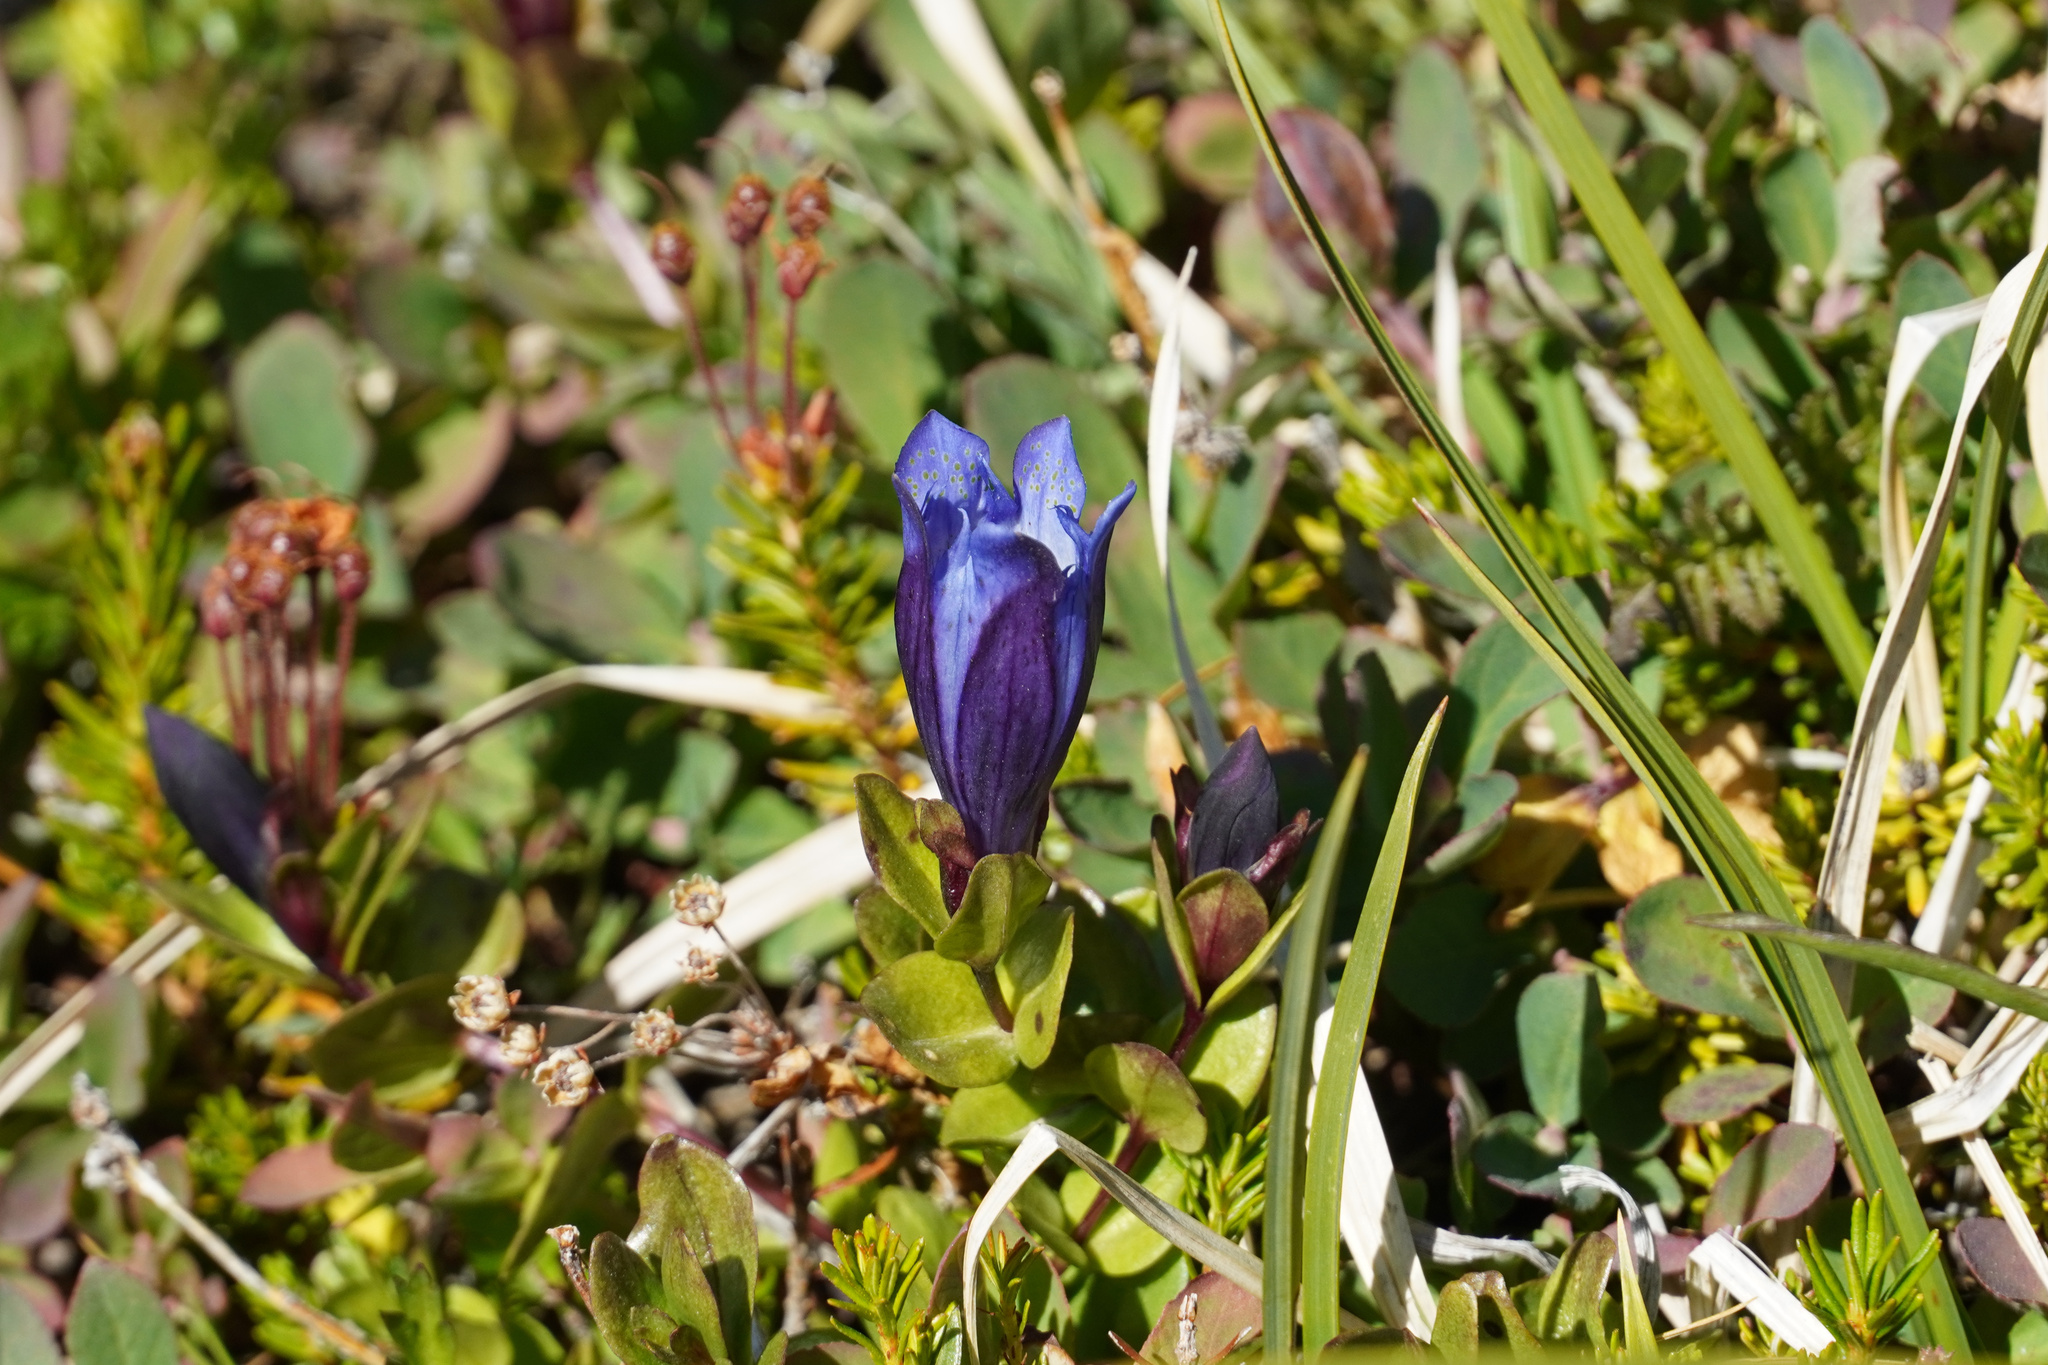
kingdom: Plantae
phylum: Tracheophyta
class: Magnoliopsida
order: Gentianales
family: Gentianaceae
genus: Gentiana
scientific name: Gentiana calycosa
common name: Rainier pleated gentian
